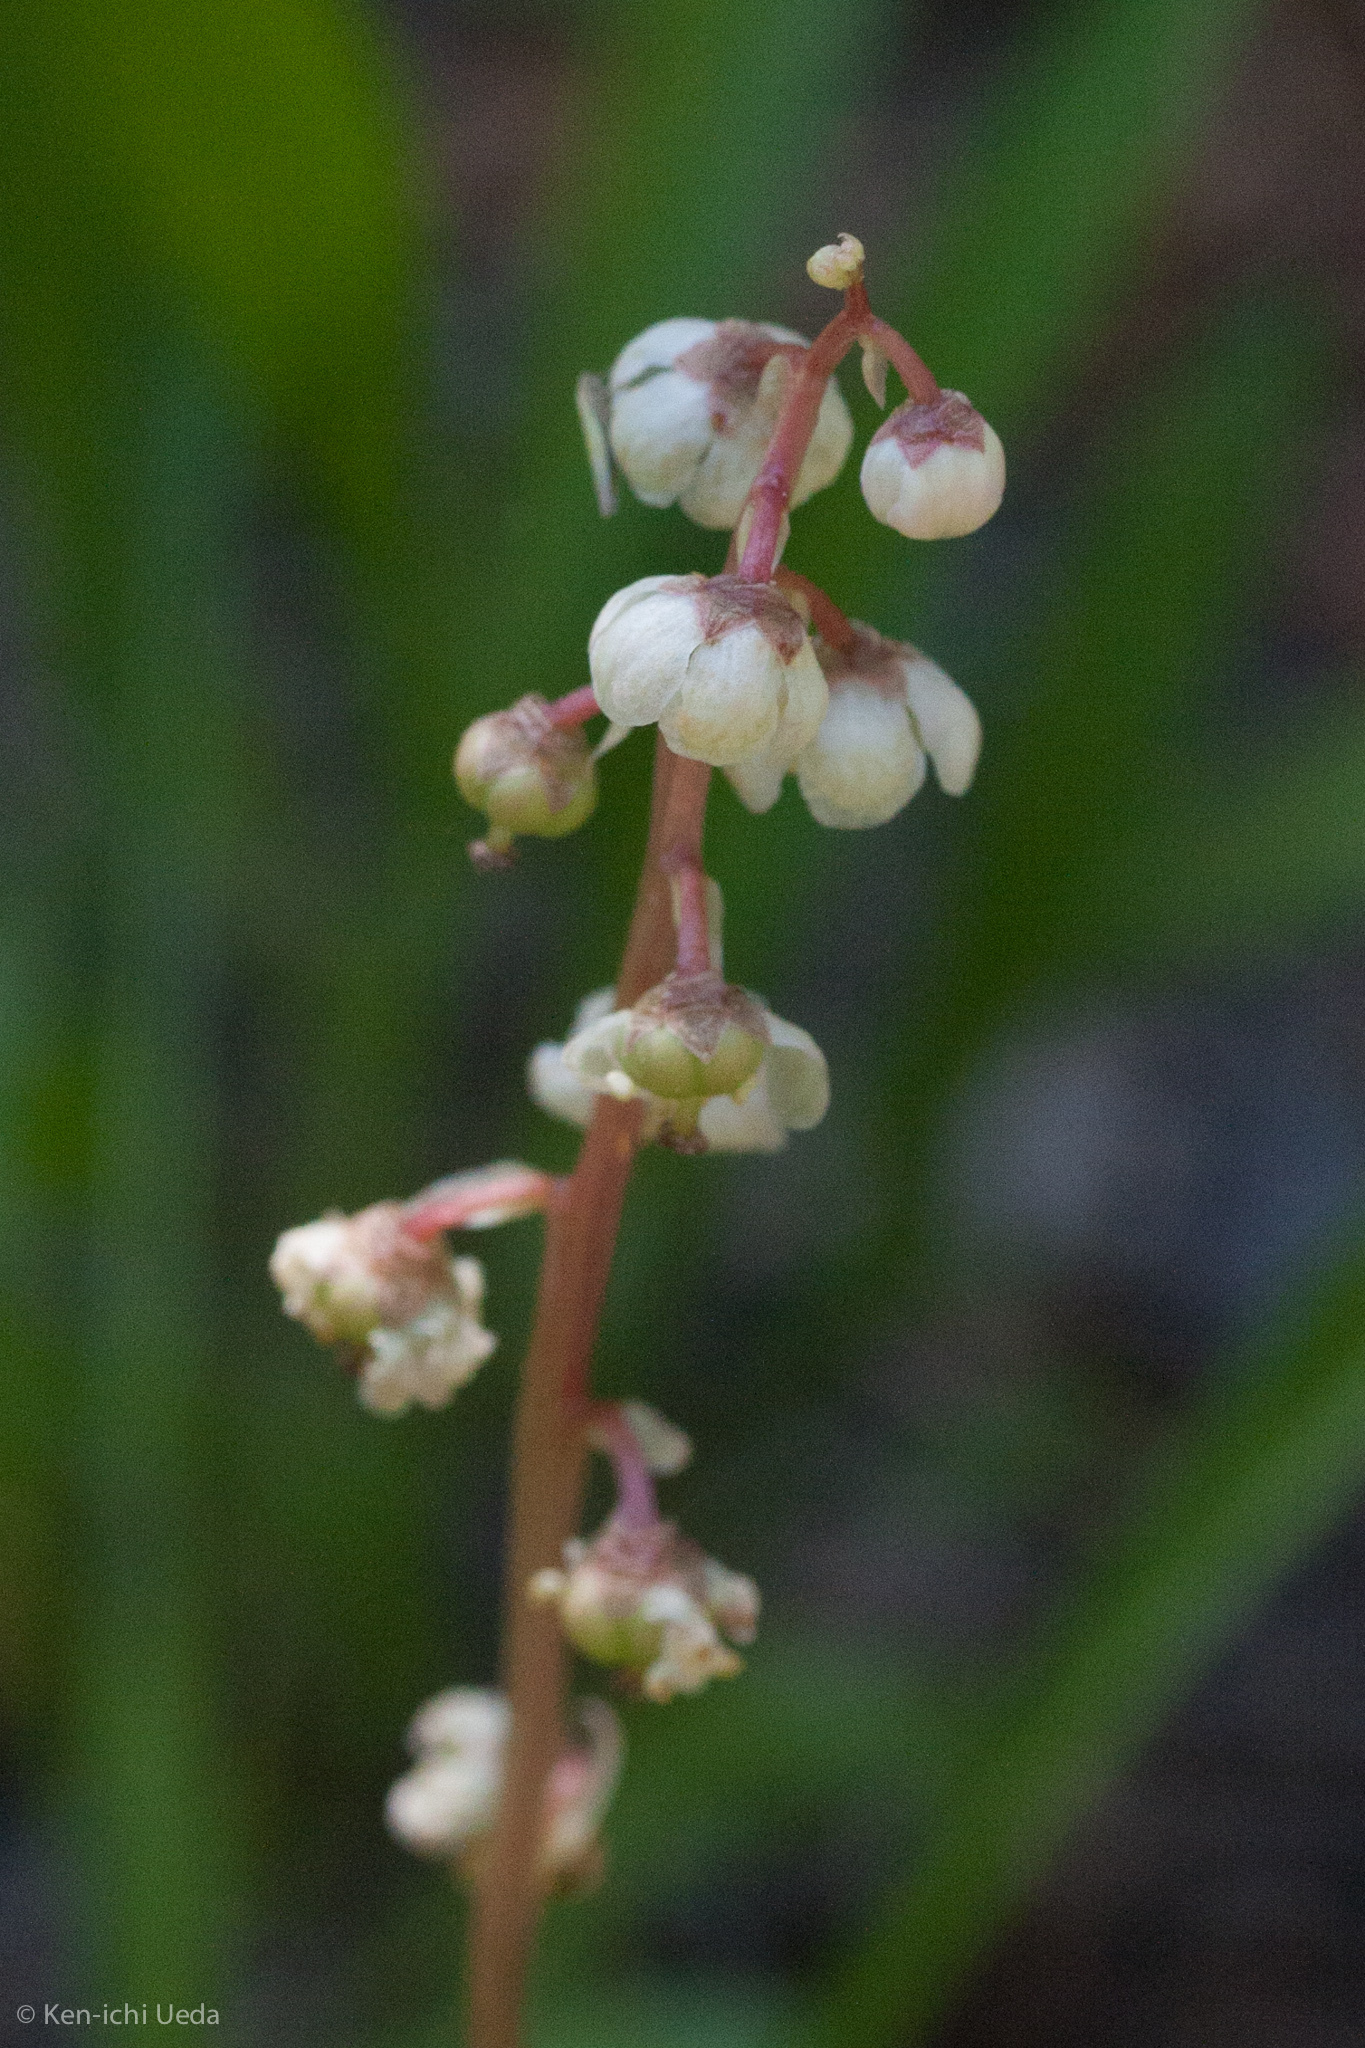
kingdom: Plantae
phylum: Tracheophyta
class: Magnoliopsida
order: Ericales
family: Ericaceae
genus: Pyrola
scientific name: Pyrola minor
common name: Common wintergreen
